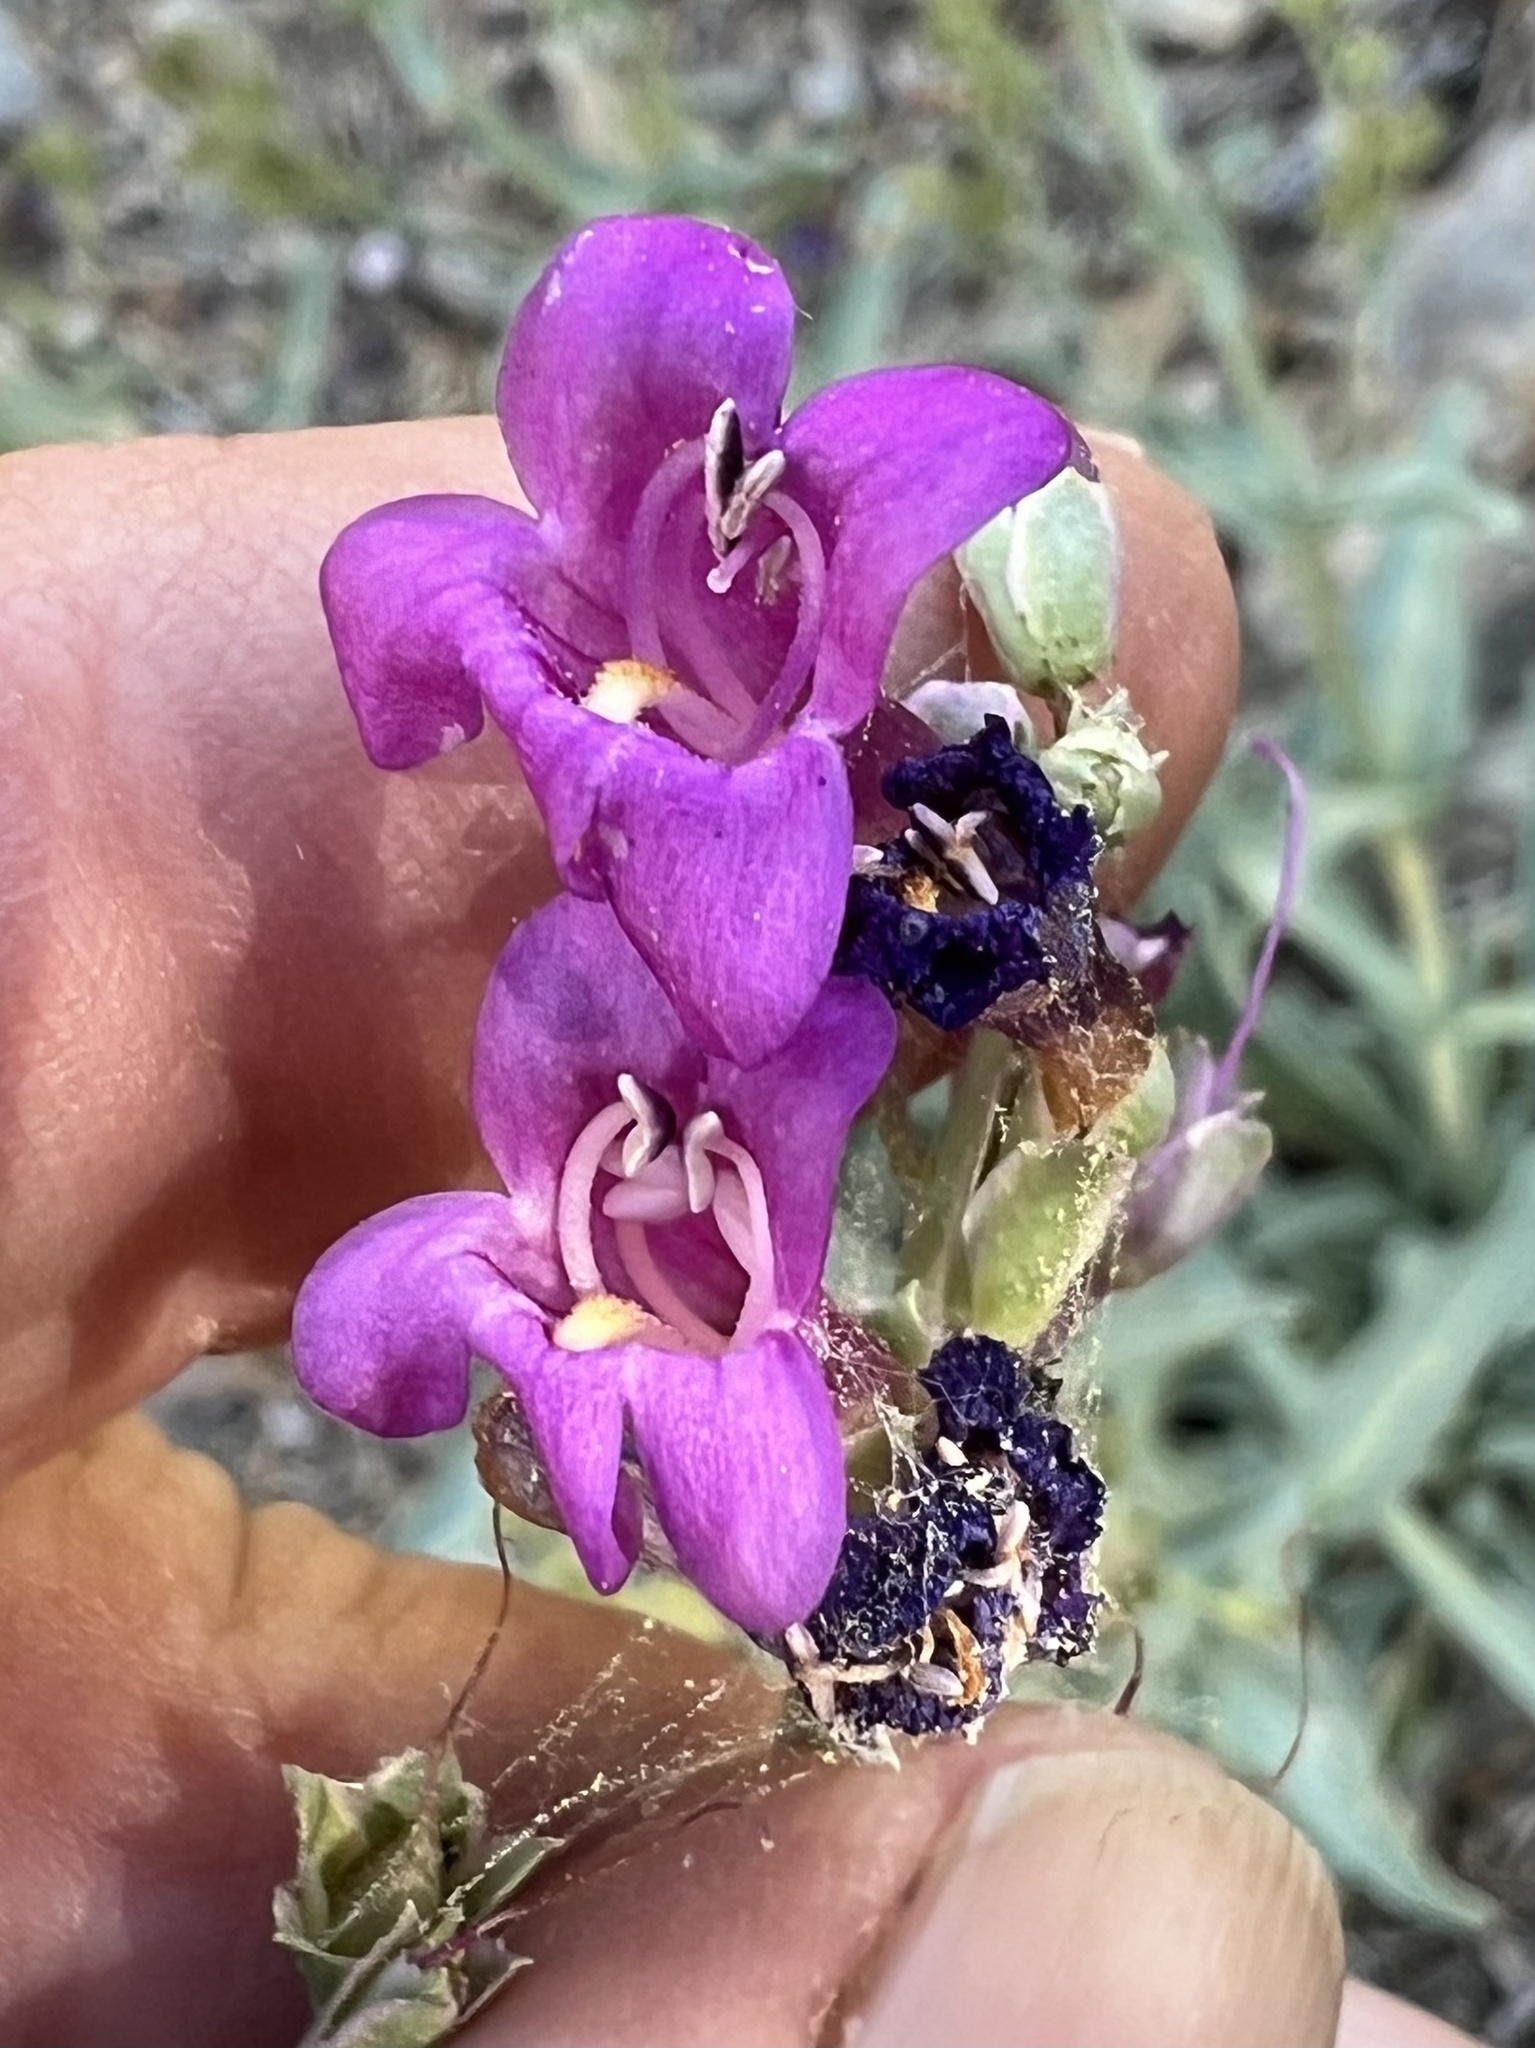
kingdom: Plantae
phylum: Tracheophyta
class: Magnoliopsida
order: Lamiales
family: Plantaginaceae
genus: Penstemon
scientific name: Penstemon patens
